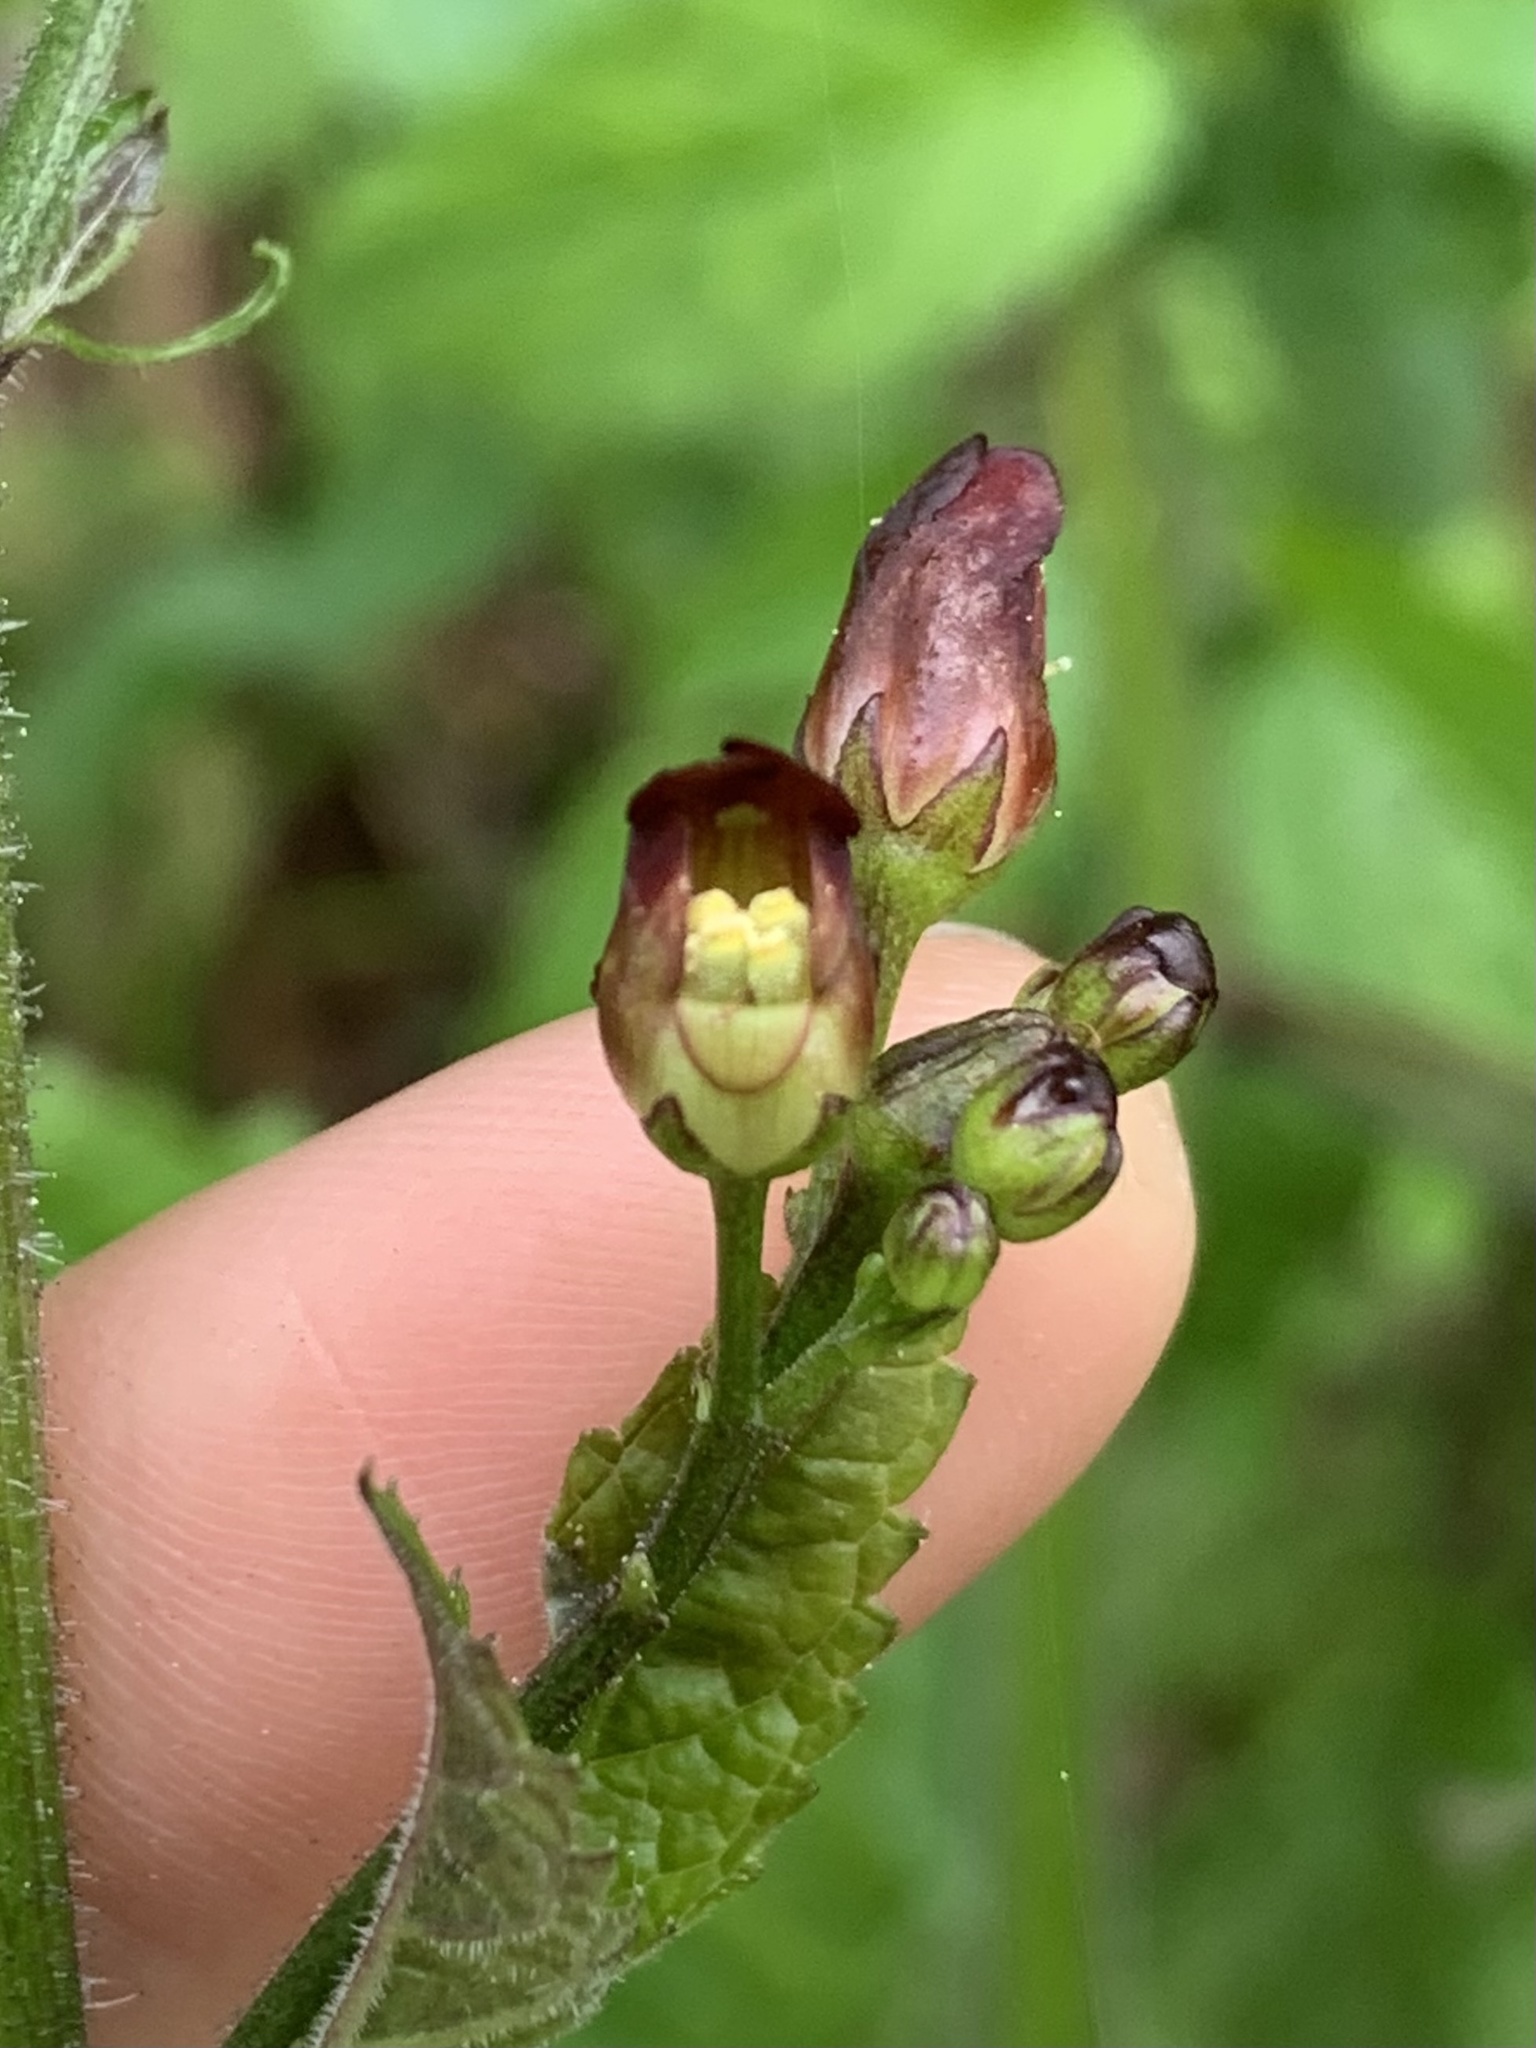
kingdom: Plantae
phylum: Tracheophyta
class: Magnoliopsida
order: Lamiales
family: Scrophulariaceae
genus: Scrophularia
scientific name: Scrophularia californica
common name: California figwort
